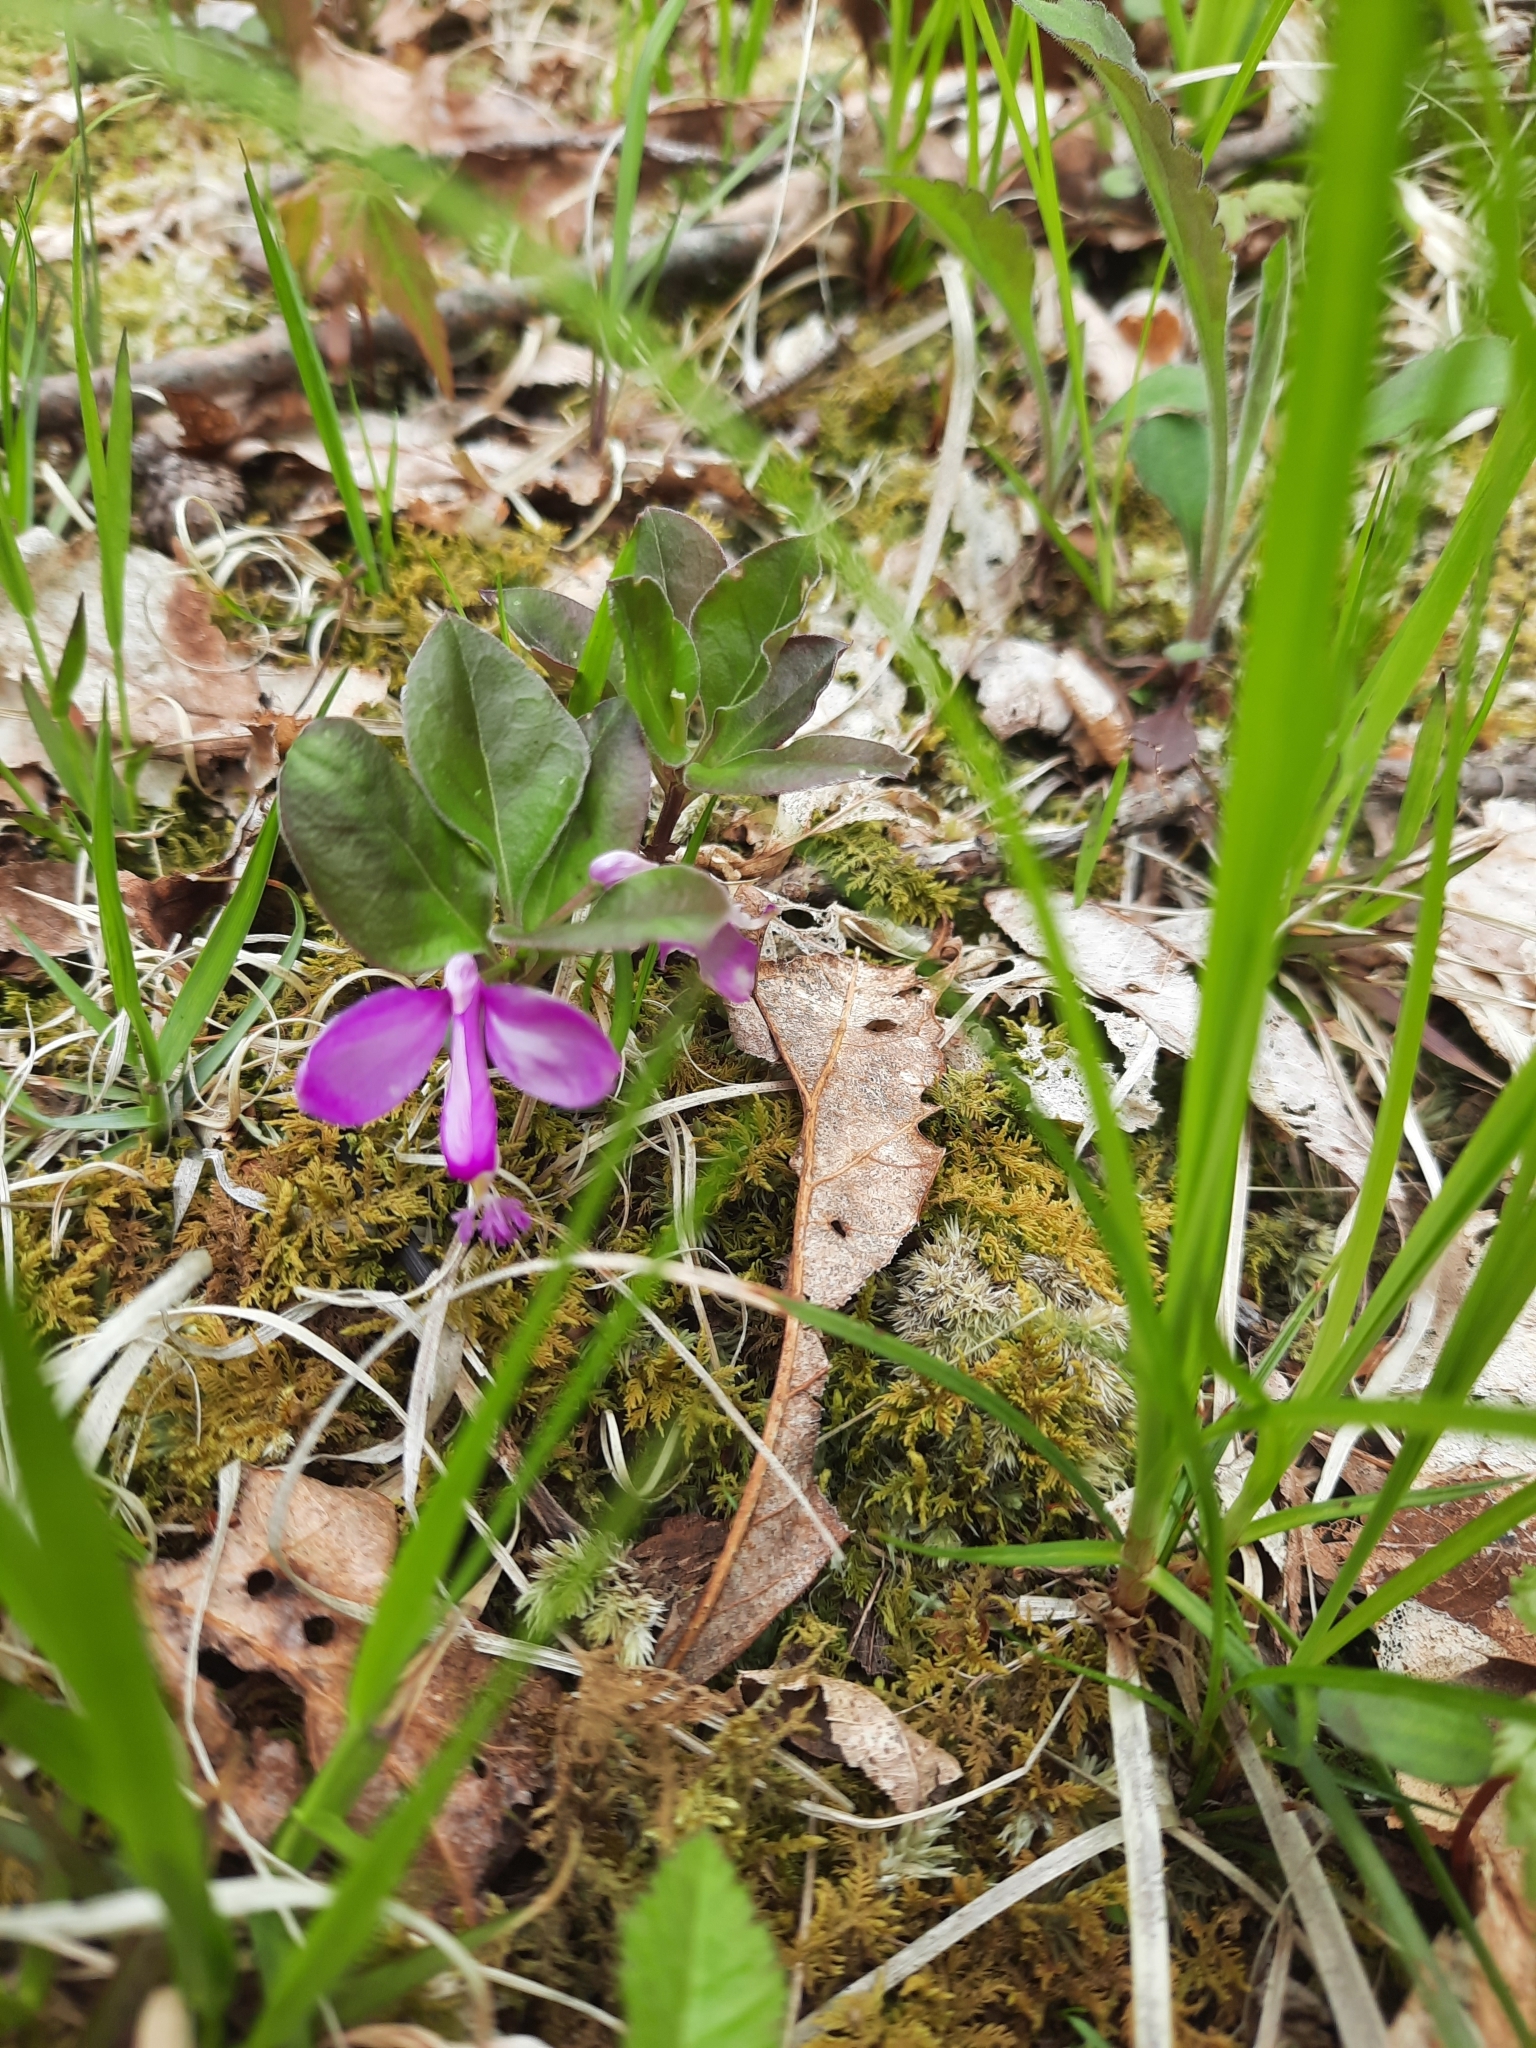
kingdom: Plantae
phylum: Tracheophyta
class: Magnoliopsida
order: Fabales
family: Polygalaceae
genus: Polygaloides
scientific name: Polygaloides paucifolia
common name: Bird-on-the-wing
